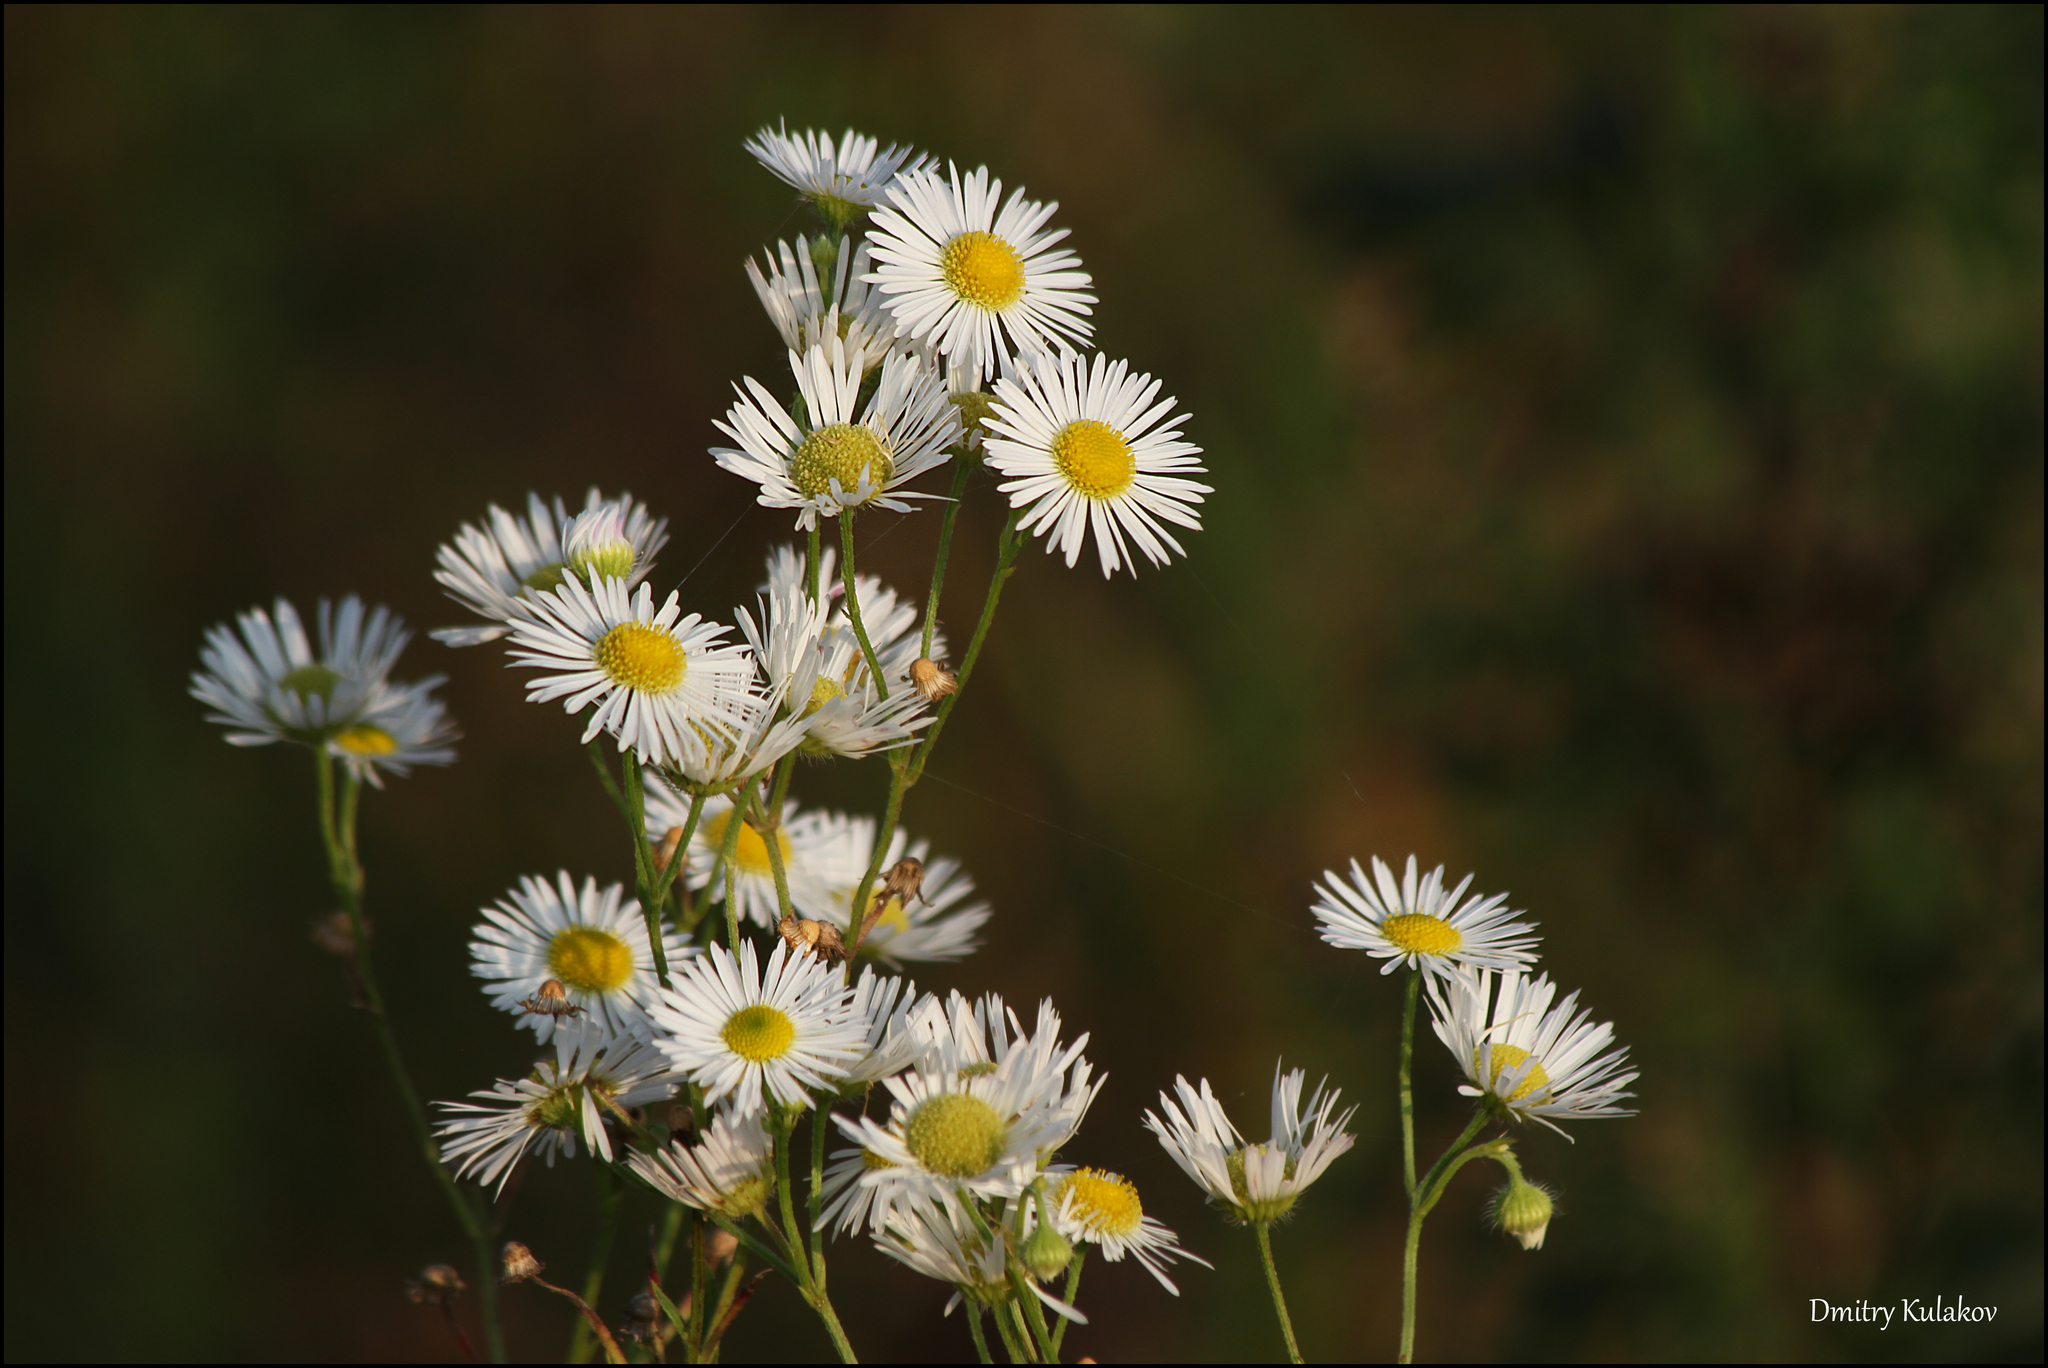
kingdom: Plantae
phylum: Tracheophyta
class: Magnoliopsida
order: Asterales
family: Asteraceae
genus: Erigeron
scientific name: Erigeron annuus
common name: Tall fleabane
